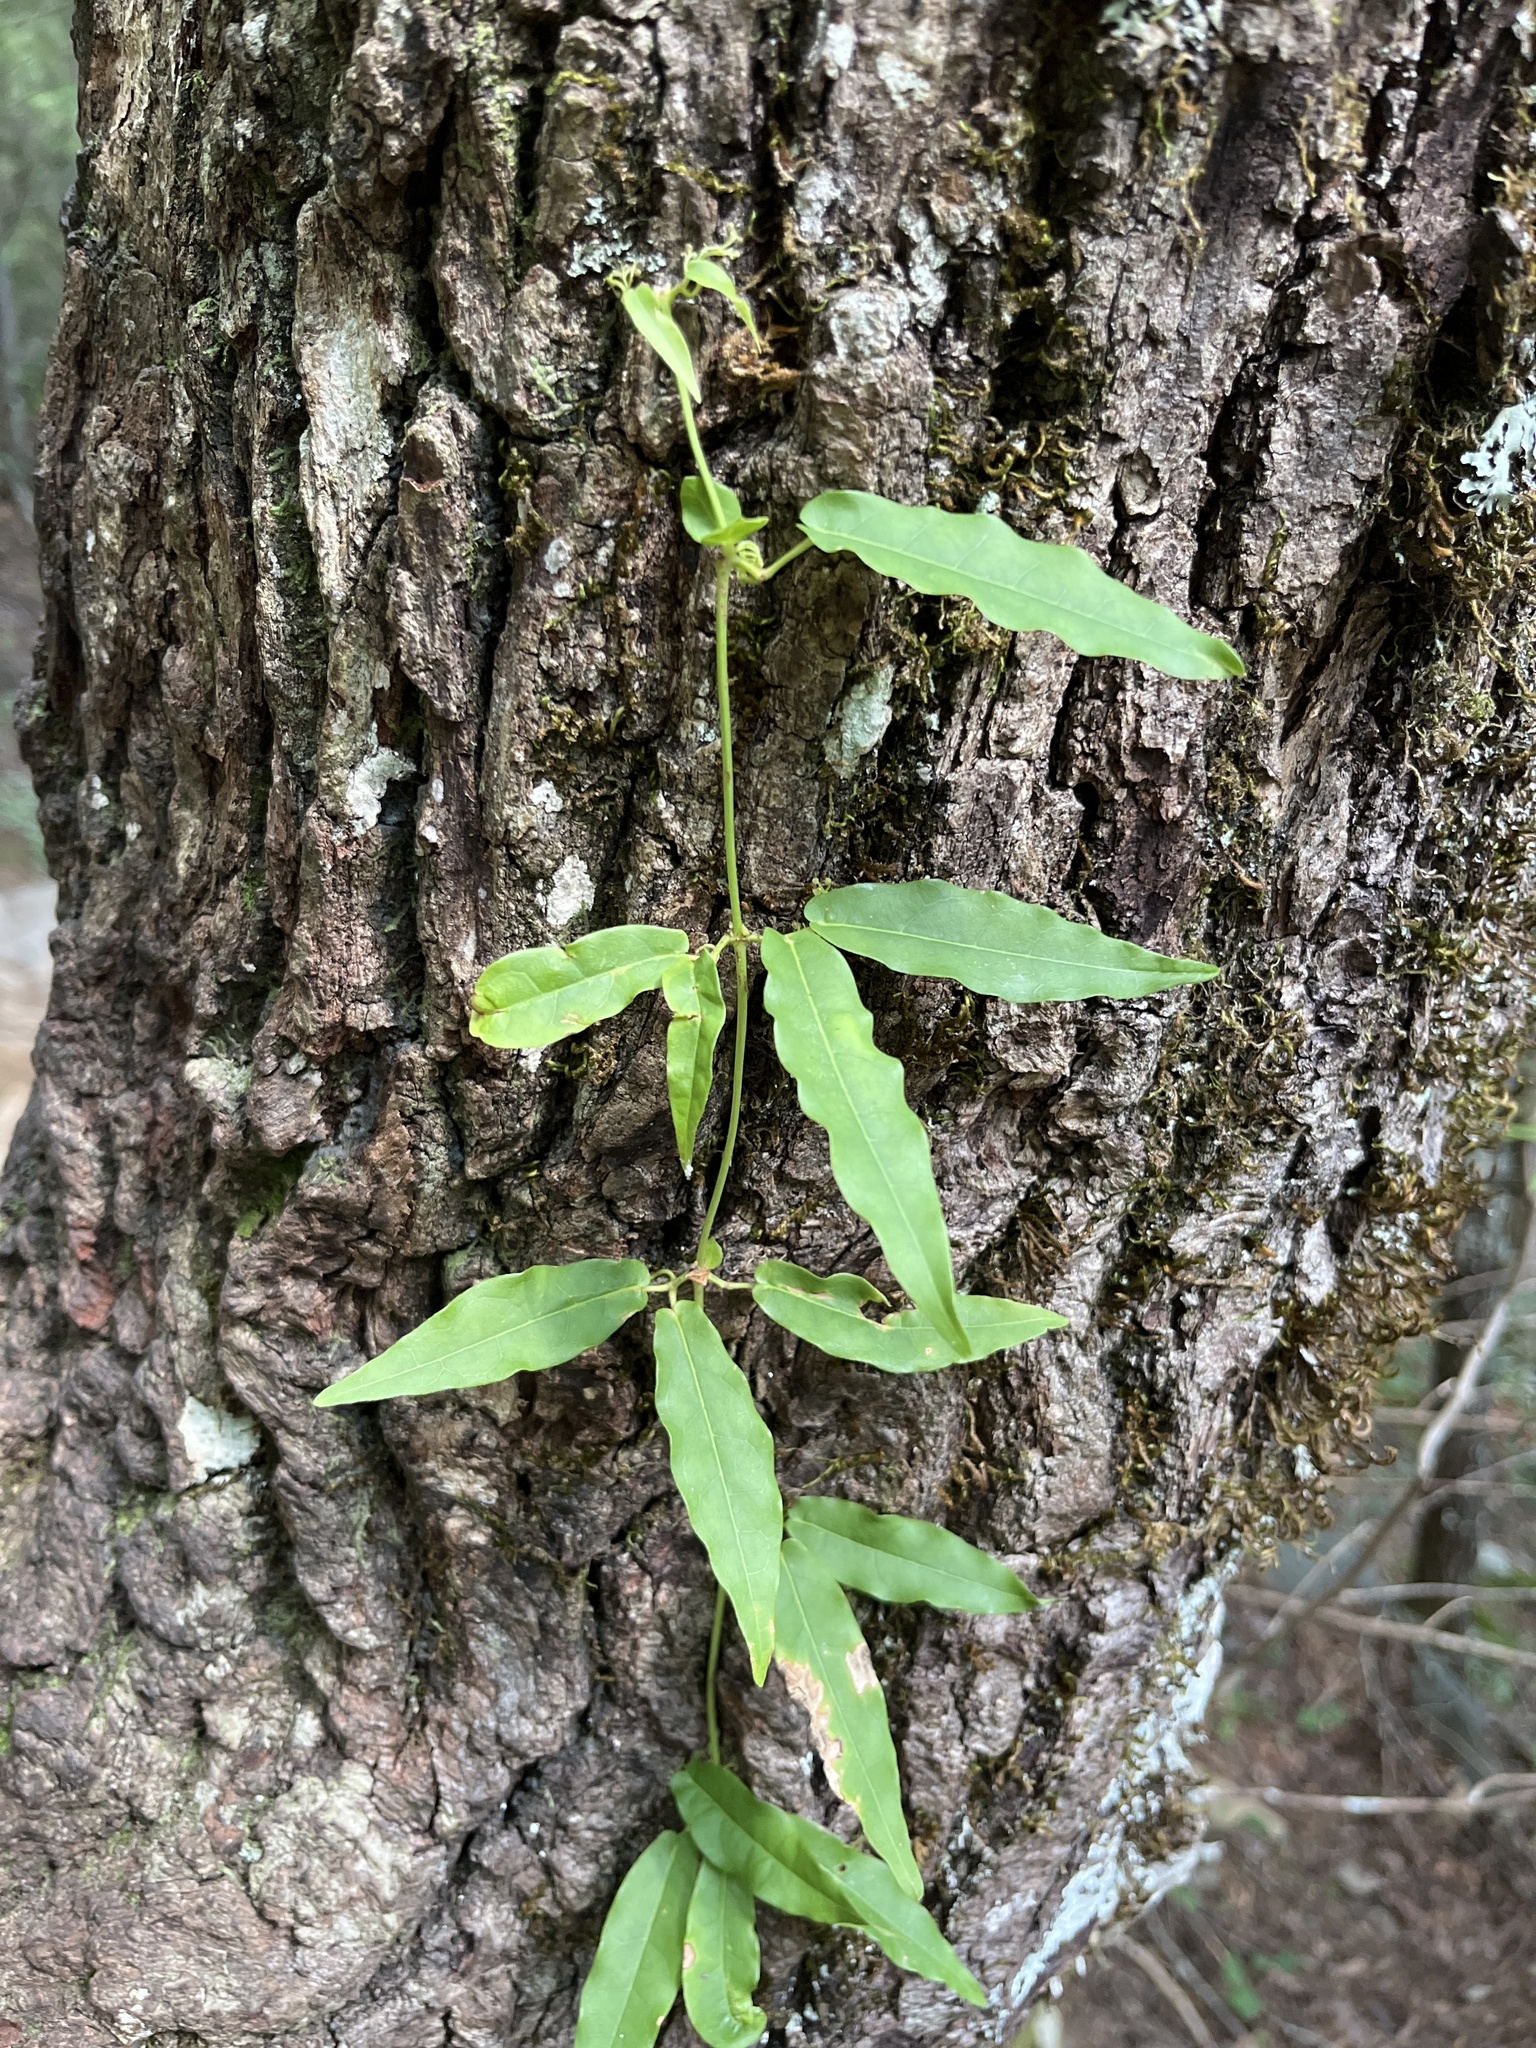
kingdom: Plantae
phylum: Tracheophyta
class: Magnoliopsida
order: Lamiales
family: Bignoniaceae
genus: Bignonia
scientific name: Bignonia capreolata
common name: Crossvine
